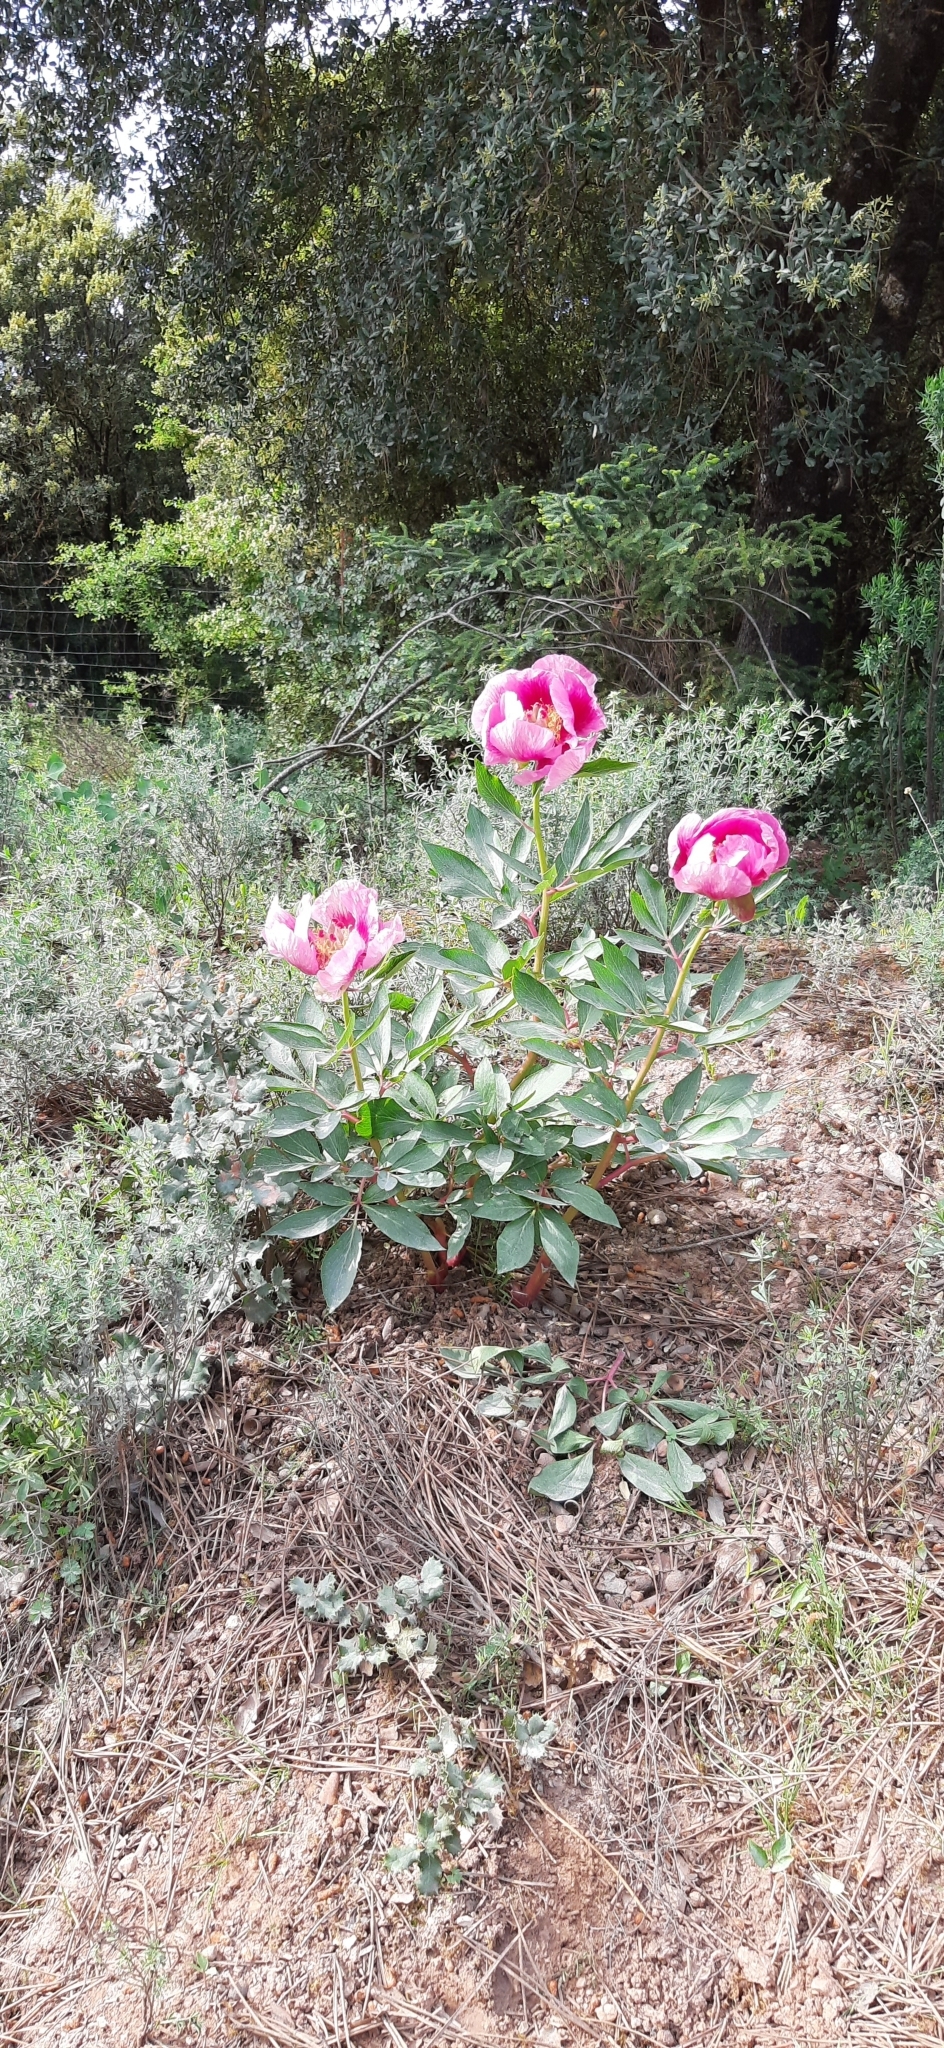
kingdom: Plantae
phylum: Tracheophyta
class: Magnoliopsida
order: Saxifragales
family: Paeoniaceae
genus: Paeonia
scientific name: Paeonia broteroi
